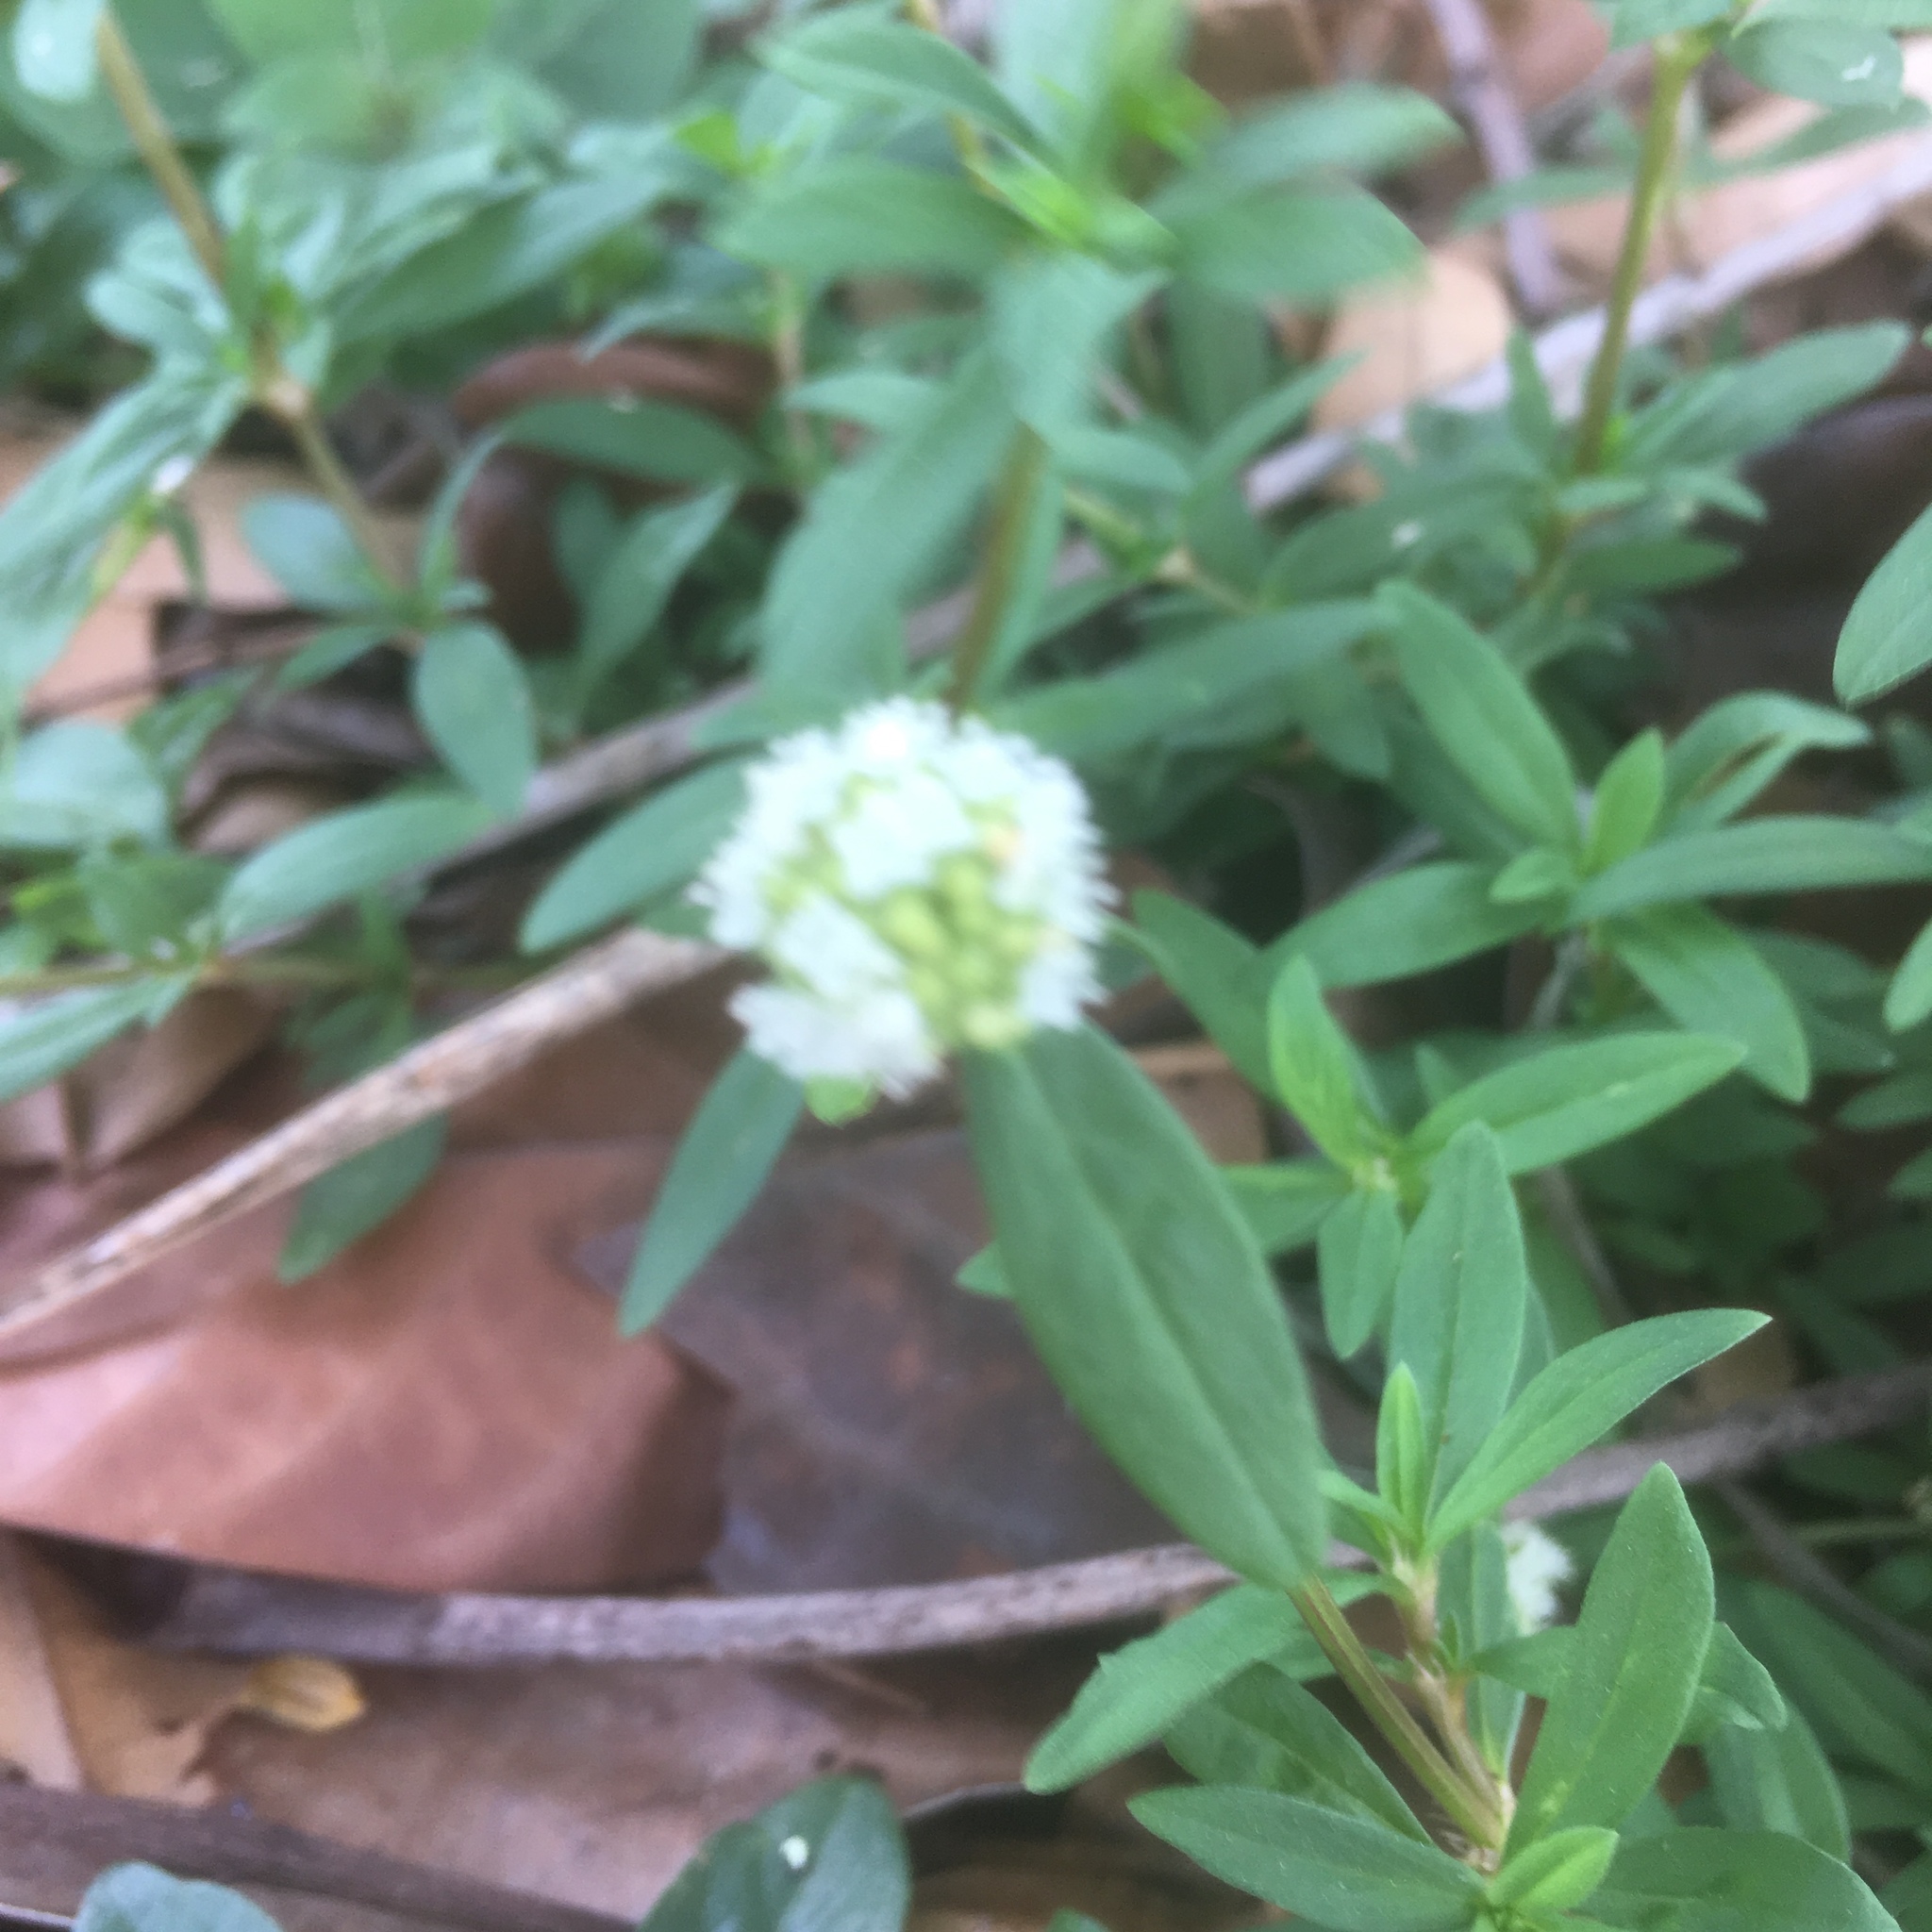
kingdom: Plantae
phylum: Tracheophyta
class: Magnoliopsida
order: Gentianales
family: Rubiaceae
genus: Spermacoce
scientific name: Spermacoce verticillata
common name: Shrubby false buttonweed
